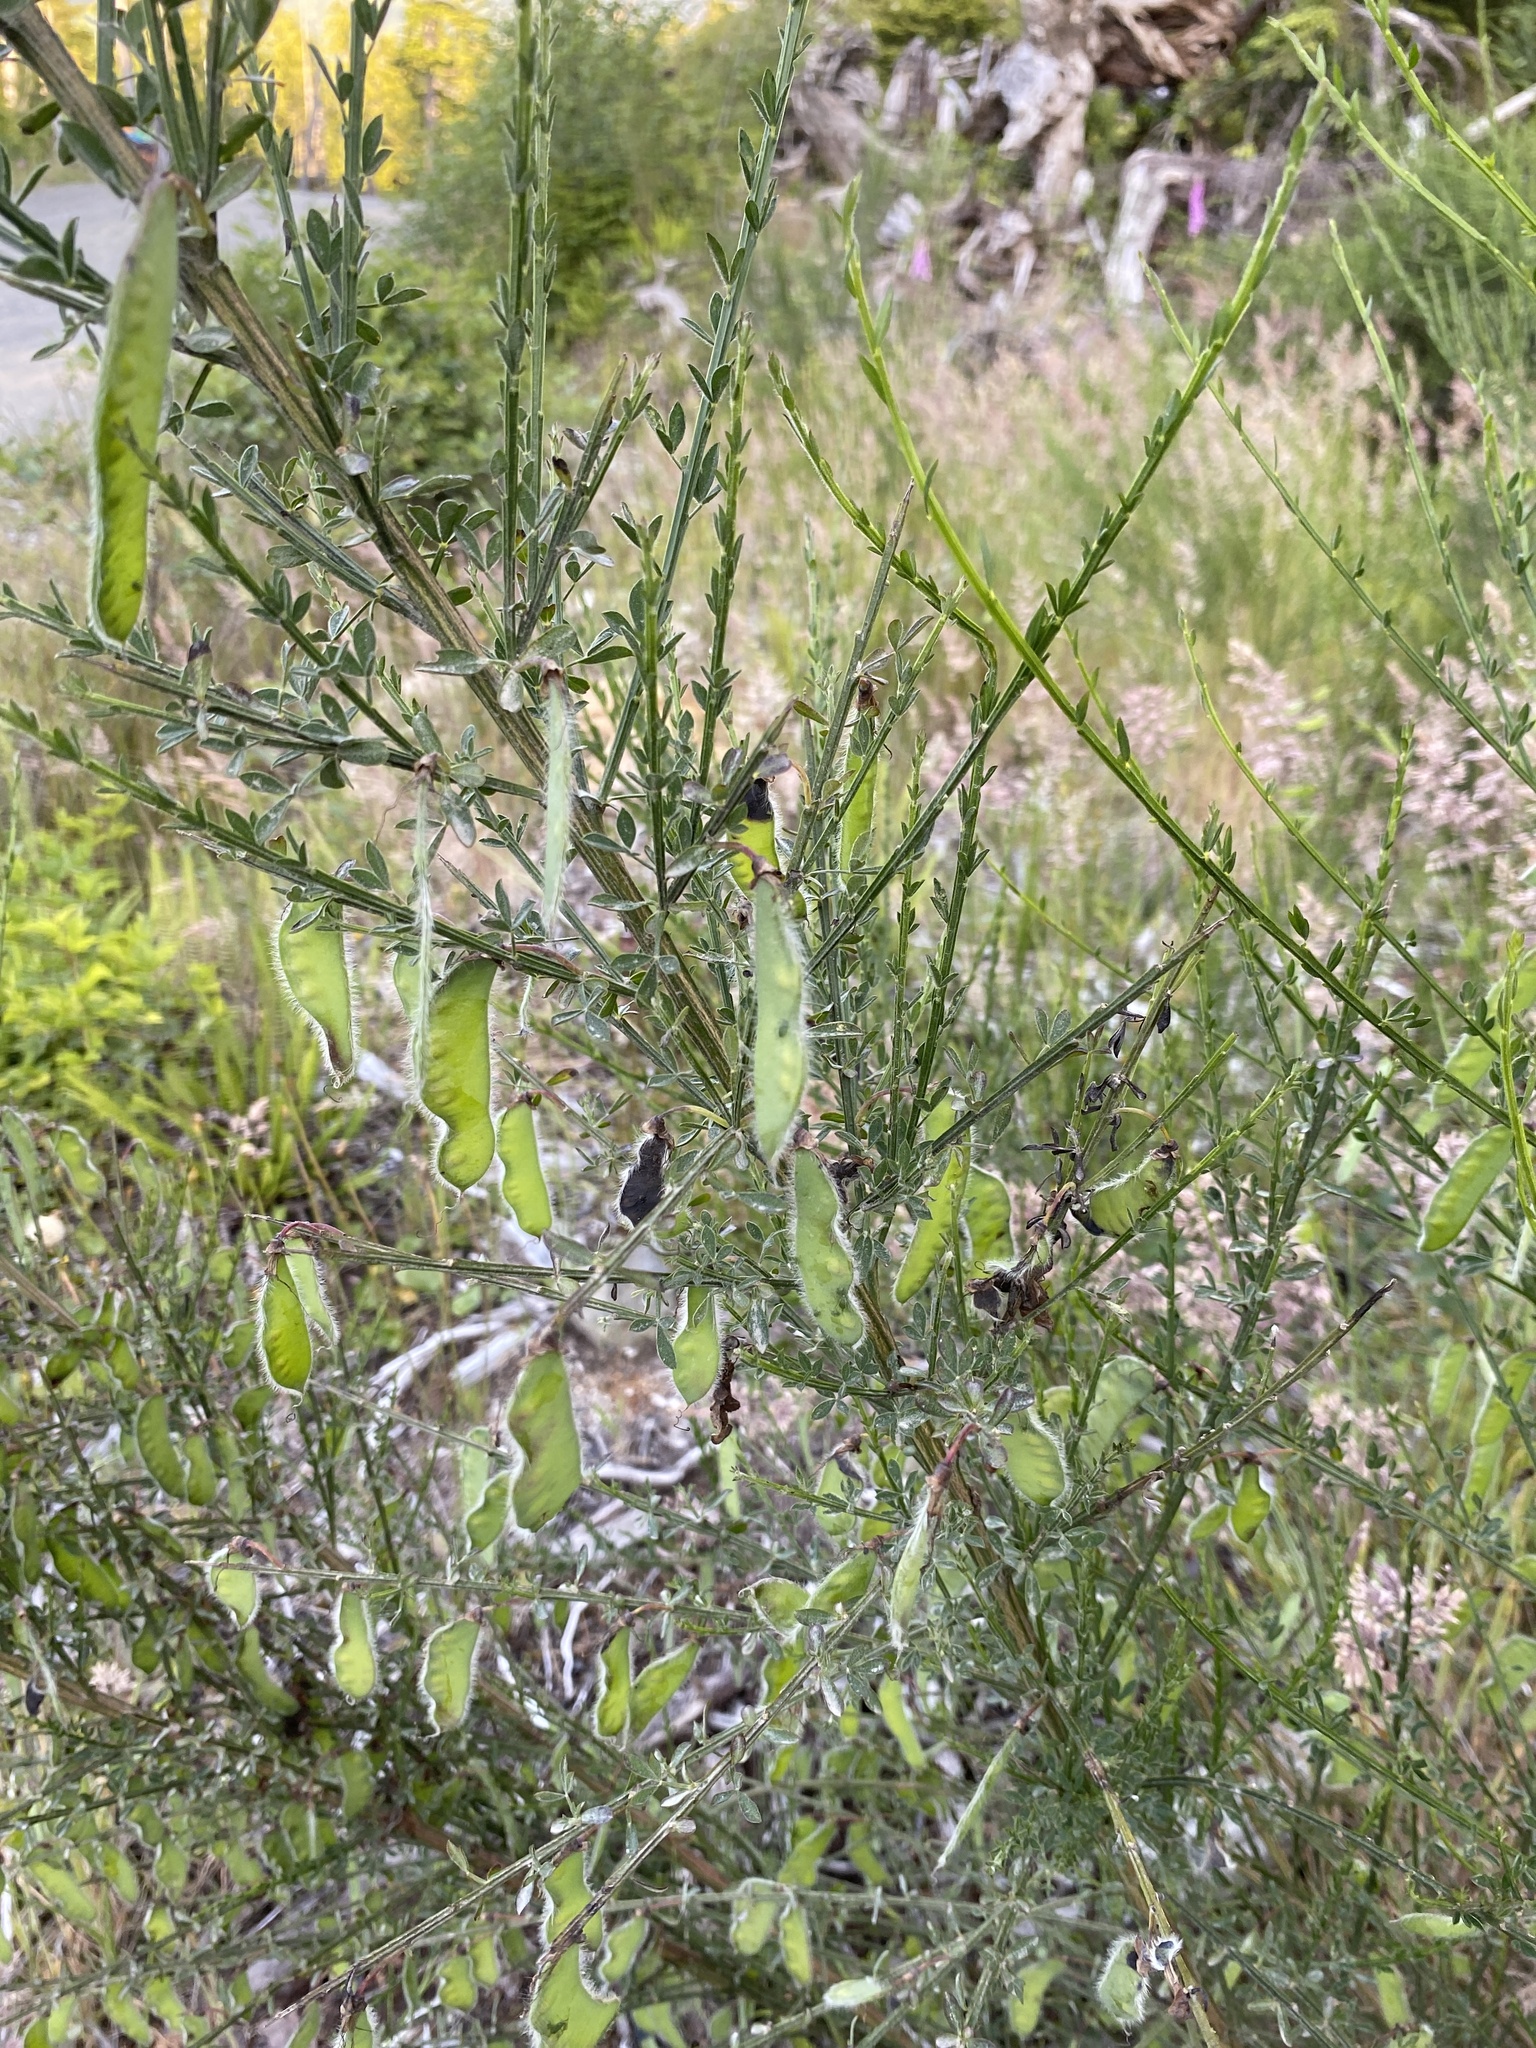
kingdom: Plantae
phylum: Tracheophyta
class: Magnoliopsida
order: Fabales
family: Fabaceae
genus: Cytisus
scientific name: Cytisus scoparius
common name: Scotch broom
